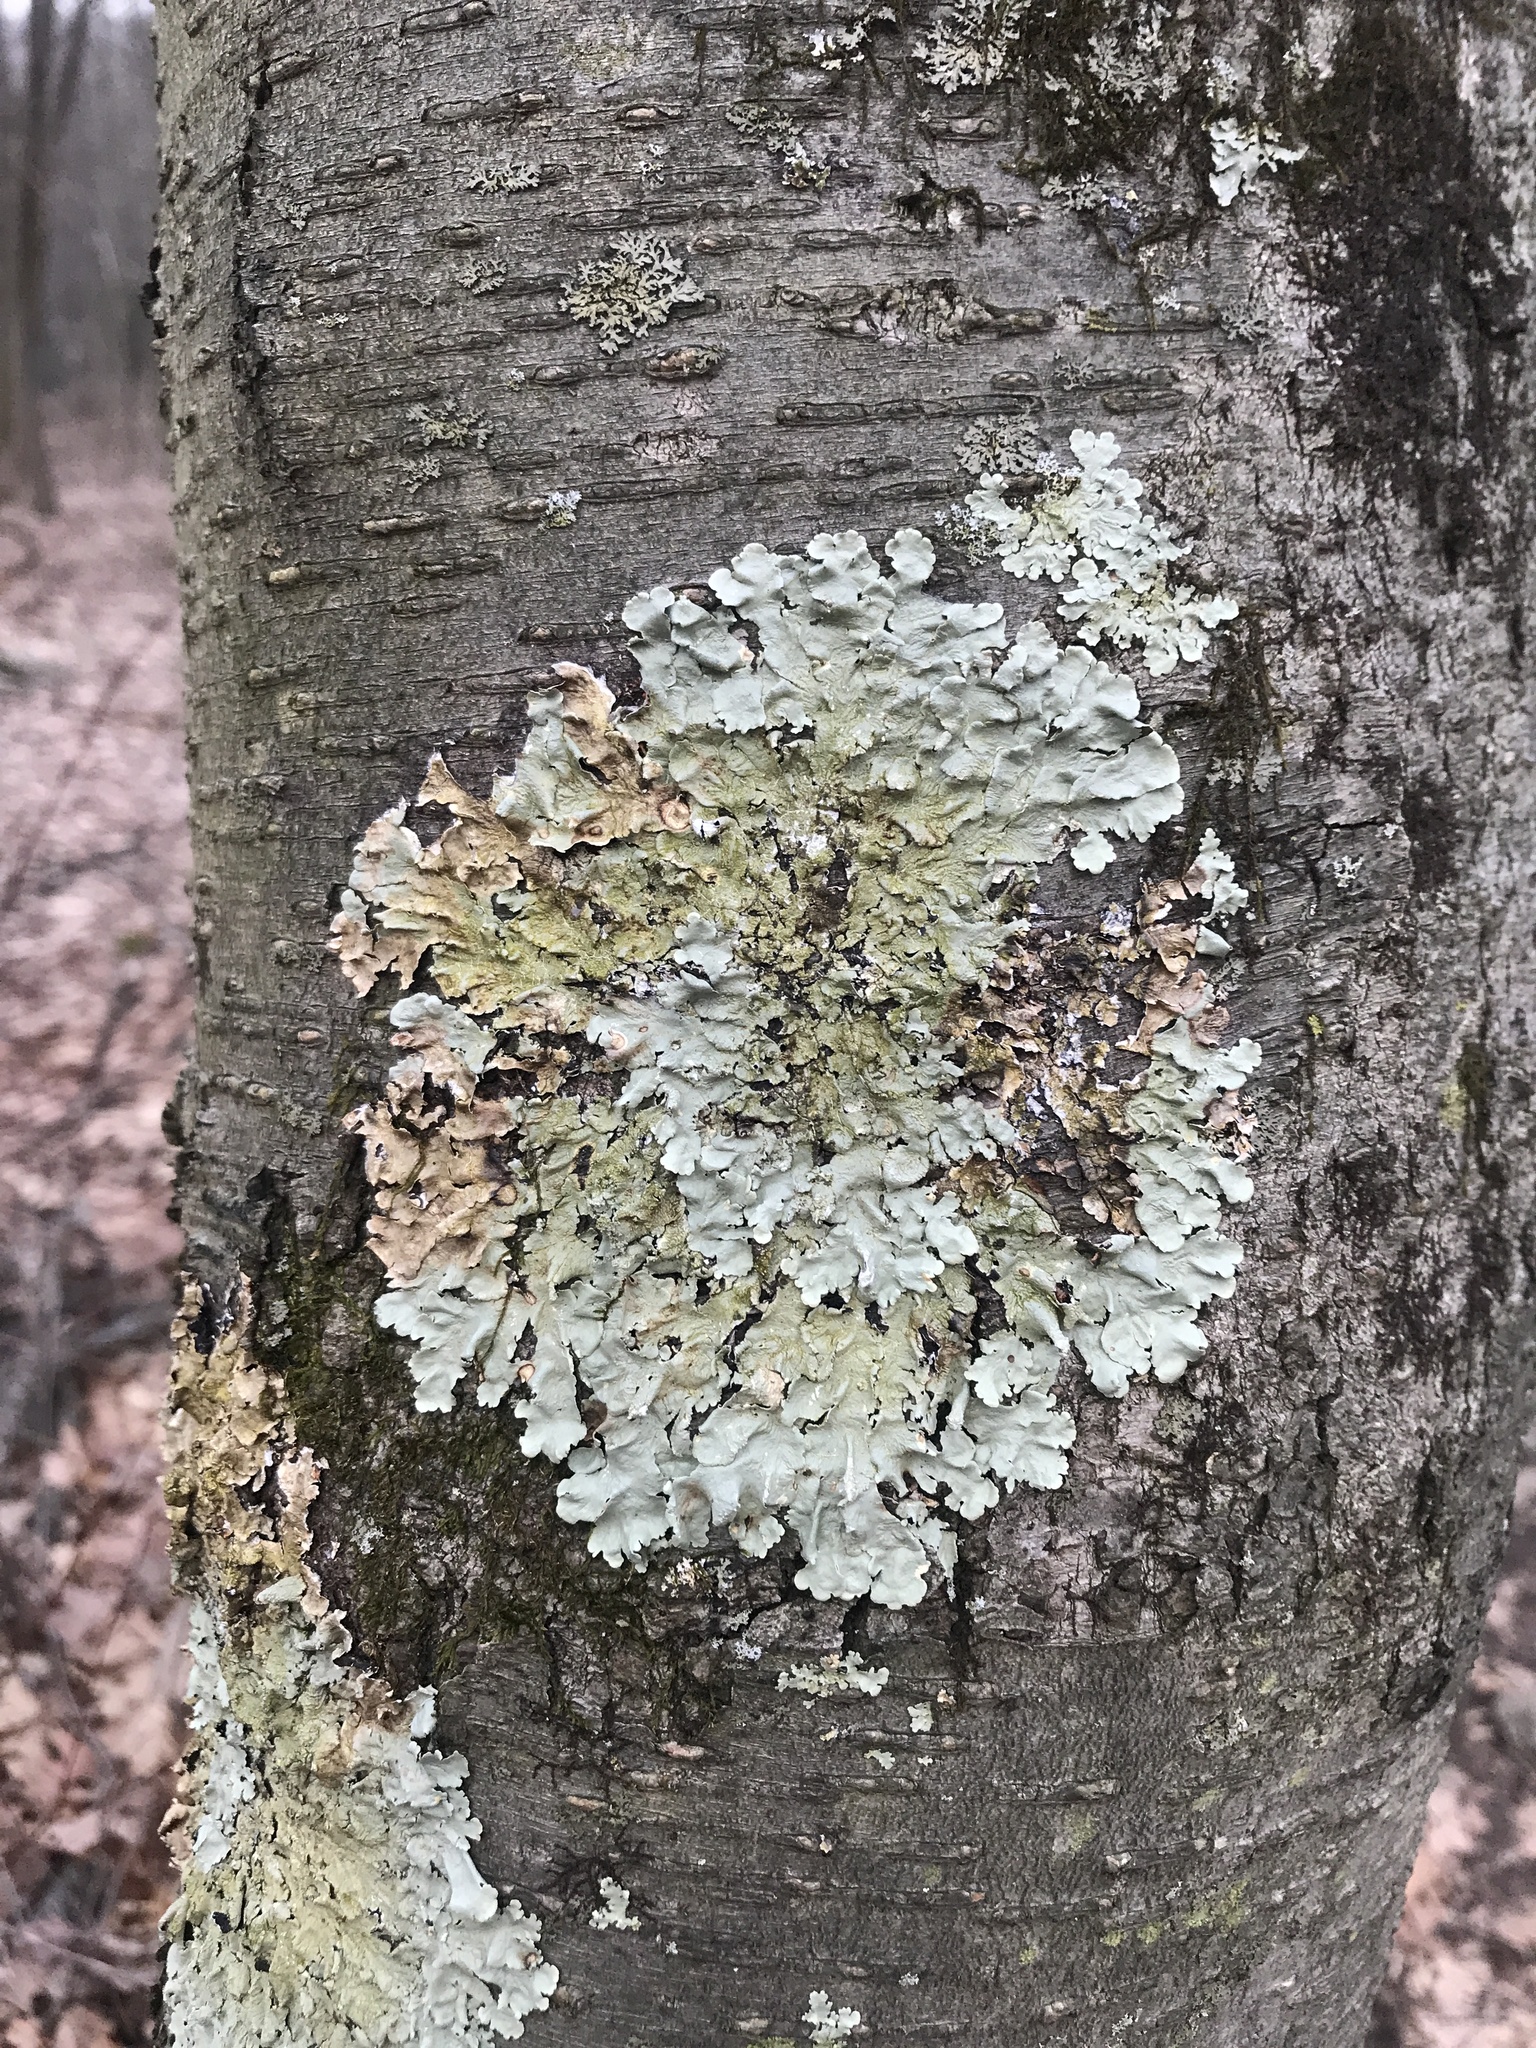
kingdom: Fungi
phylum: Ascomycota
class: Lecanoromycetes
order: Lecanorales
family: Parmeliaceae
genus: Flavoparmelia
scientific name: Flavoparmelia caperata
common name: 40-mile per hour lichen
